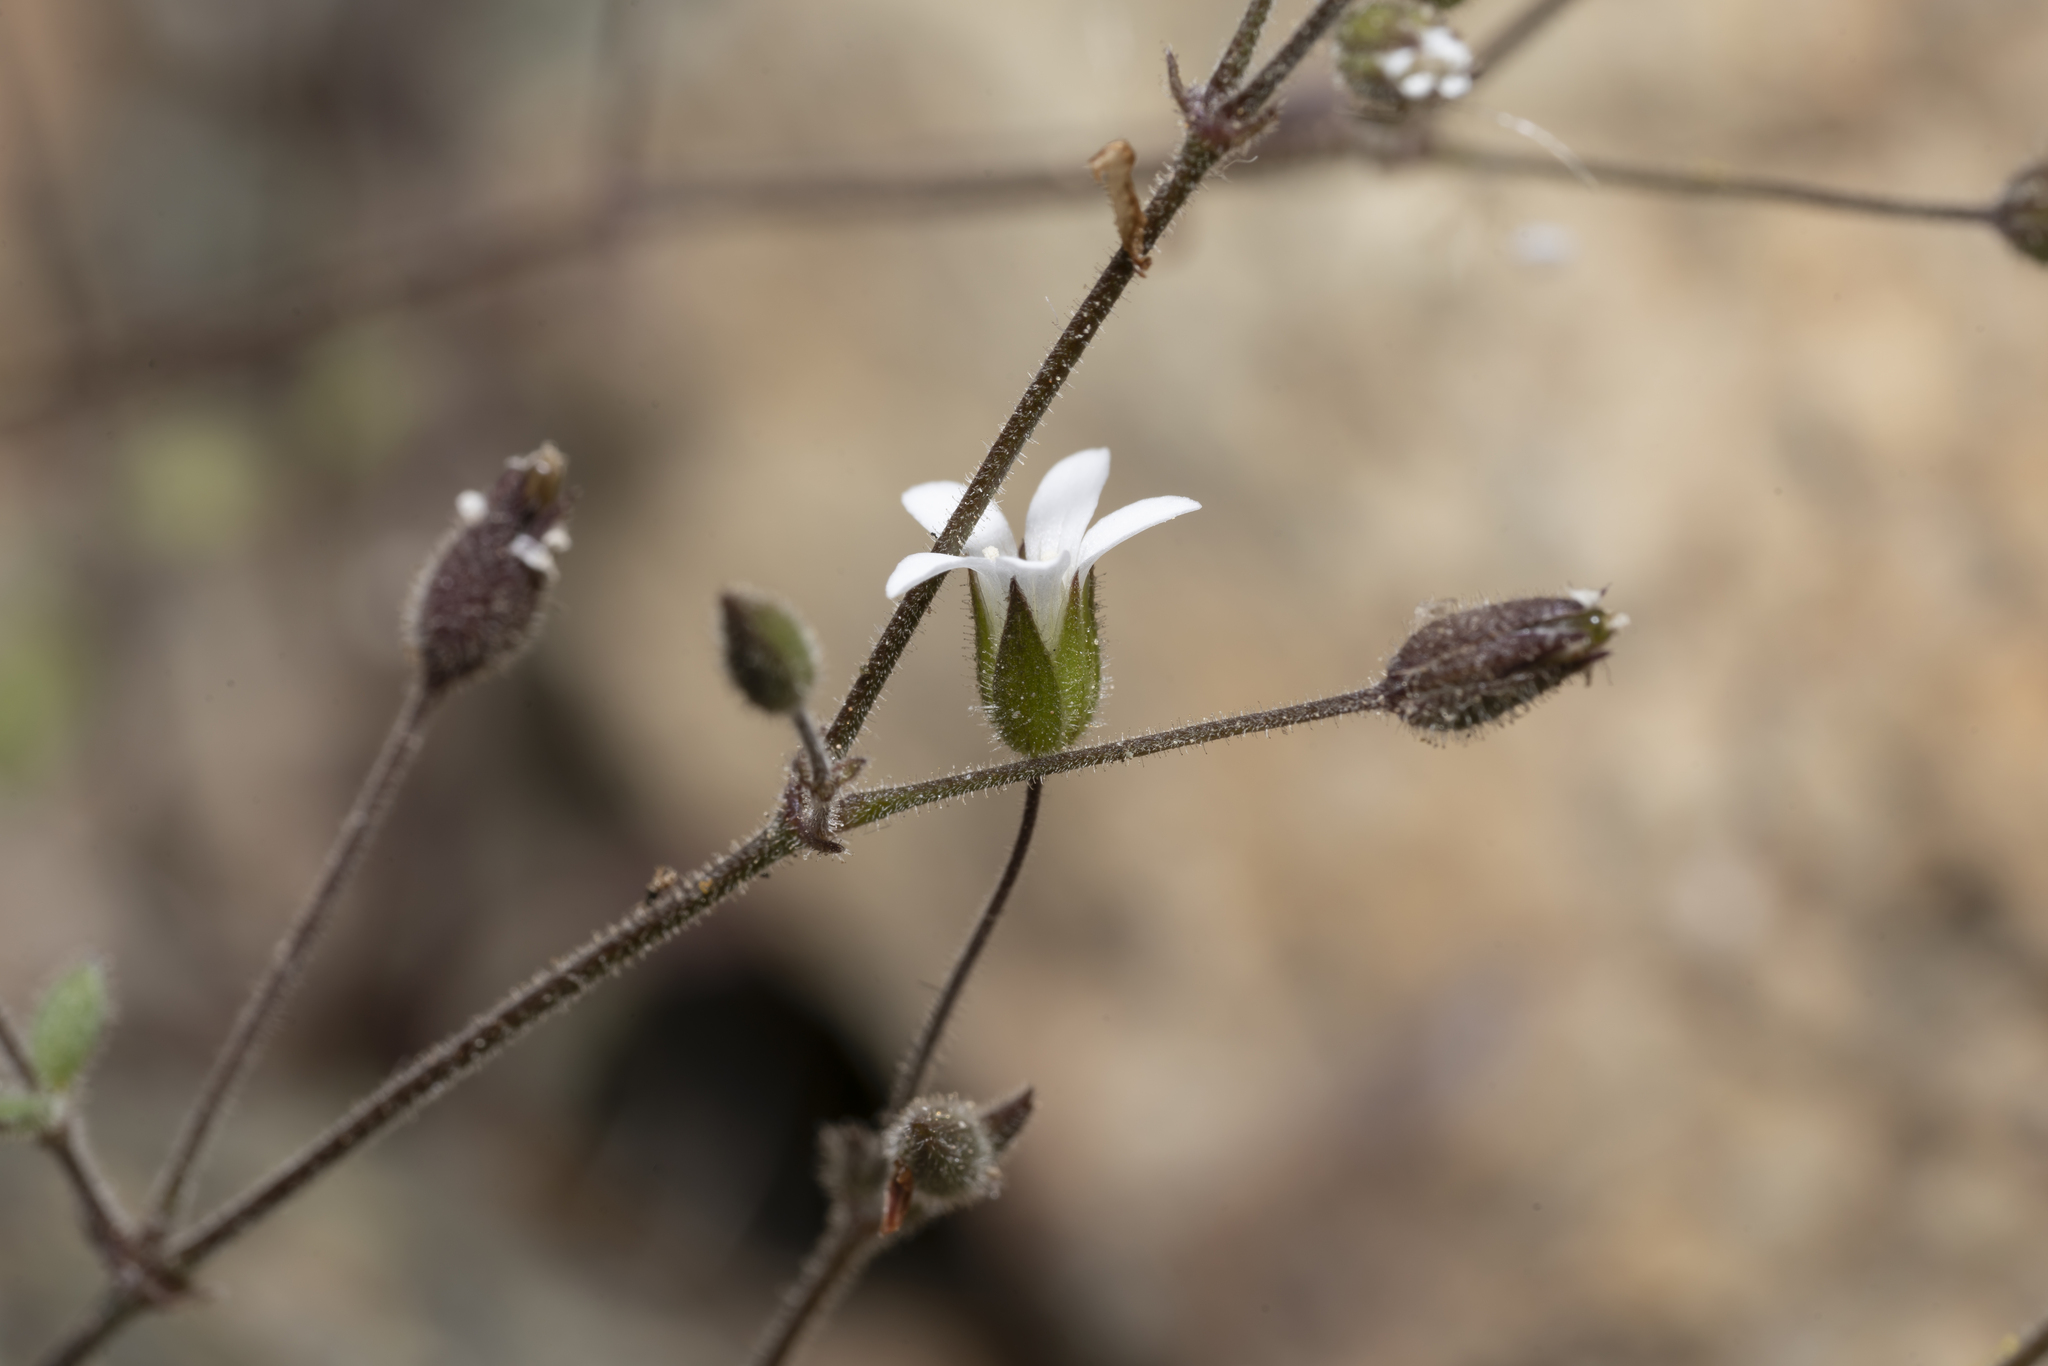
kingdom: Plantae
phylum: Tracheophyta
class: Magnoliopsida
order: Caryophyllales
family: Caryophyllaceae
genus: Arenaria
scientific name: Arenaria rhodia
